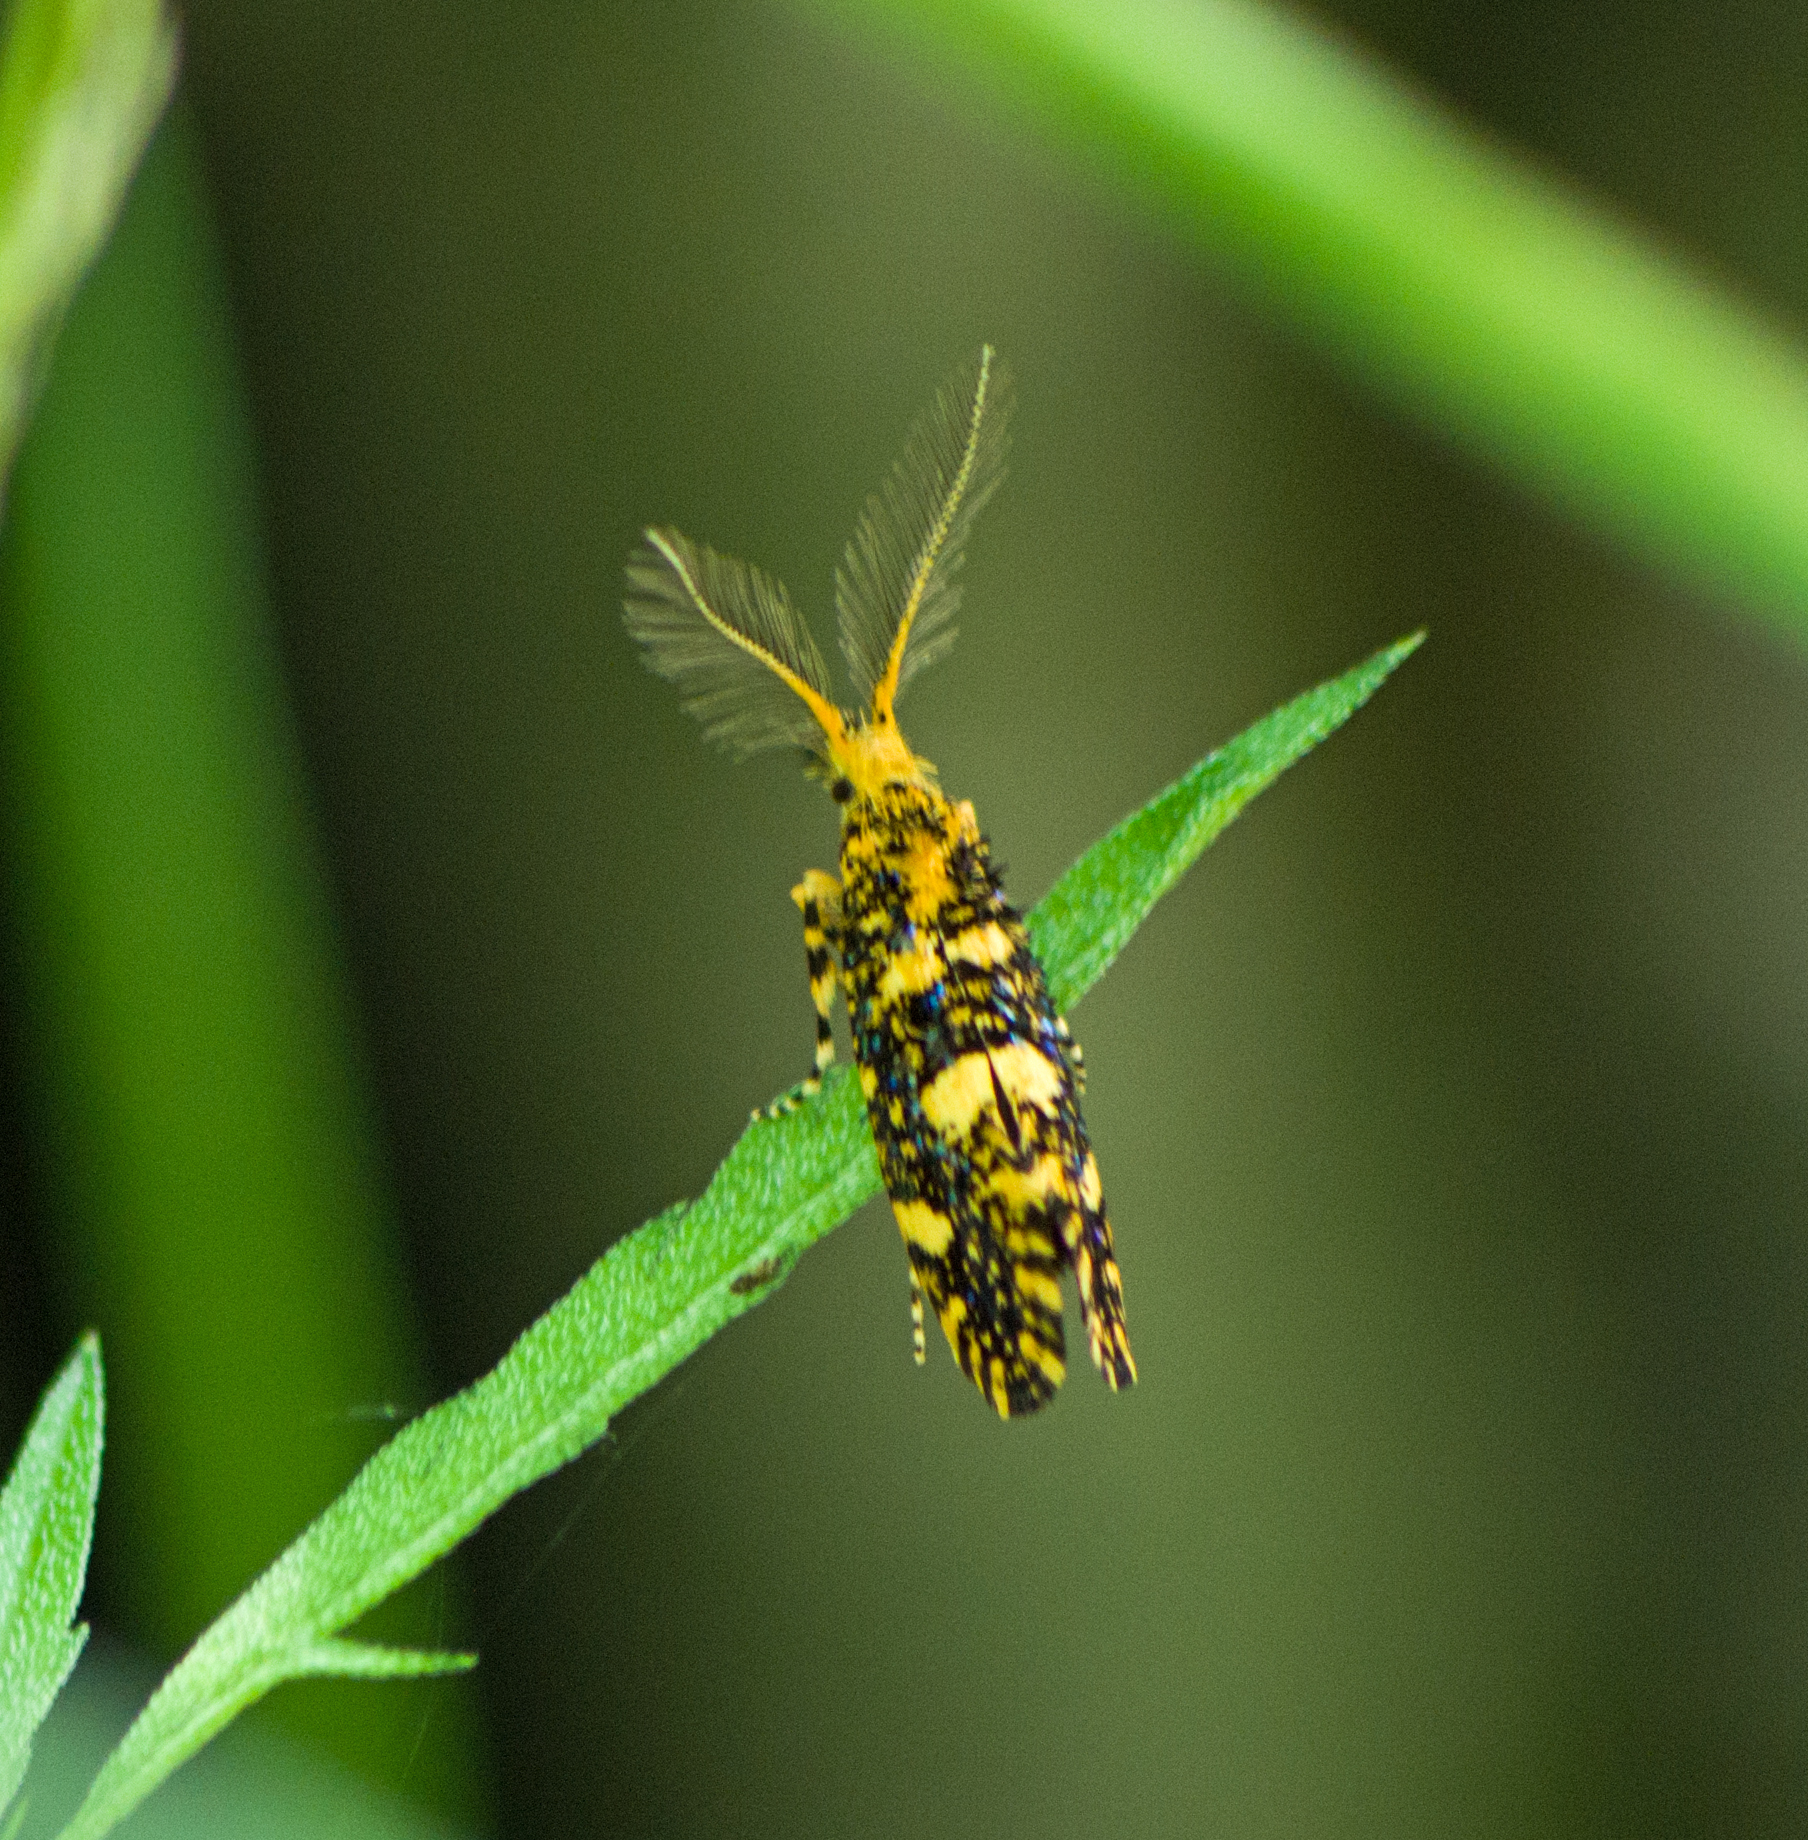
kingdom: Animalia
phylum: Arthropoda
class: Insecta
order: Lepidoptera
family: Tineidae
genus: Euplocamus
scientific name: Euplocamus ophisa
